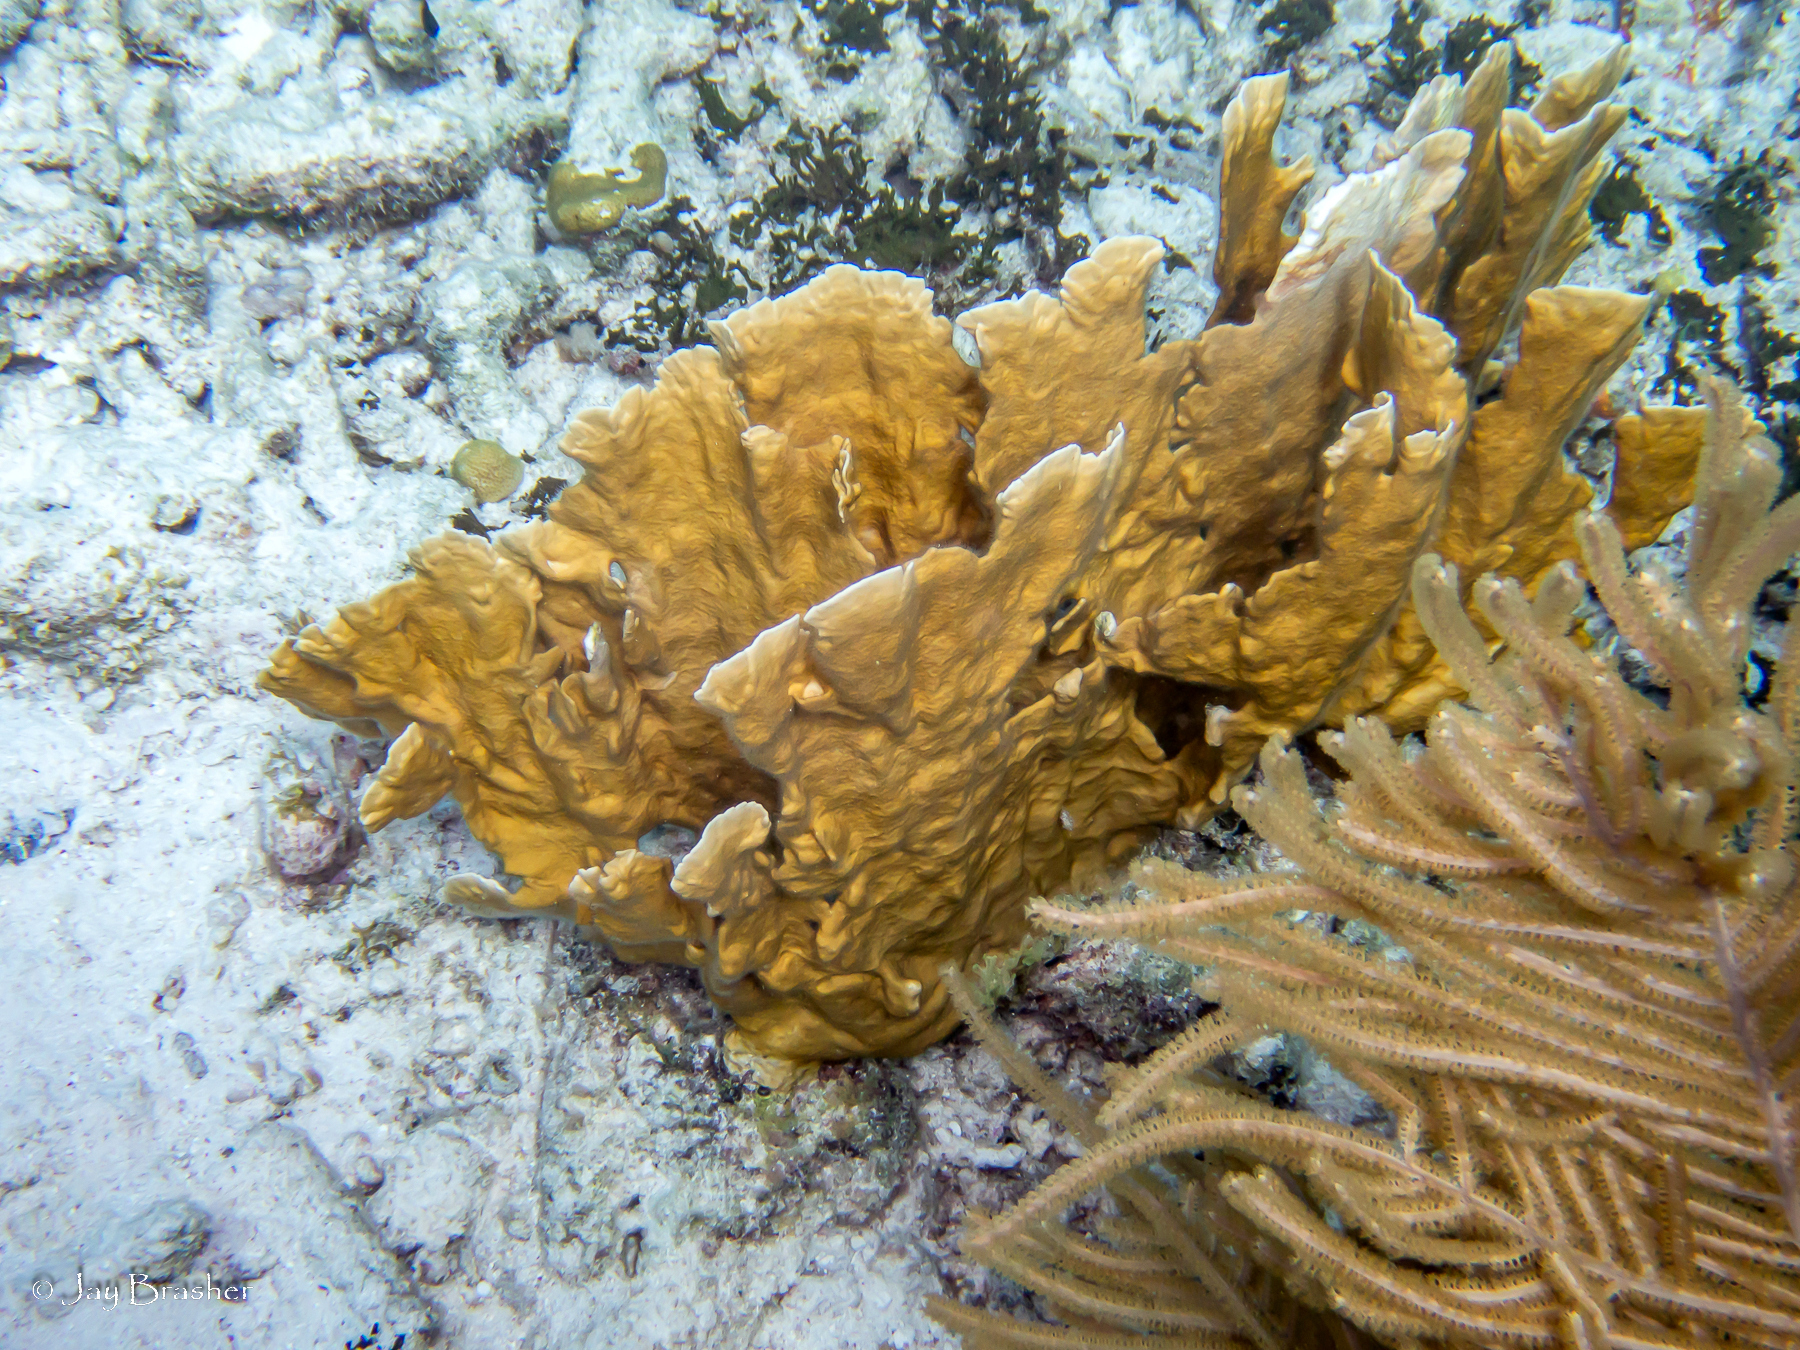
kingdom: Animalia
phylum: Cnidaria
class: Hydrozoa
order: Anthoathecata
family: Milleporidae
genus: Millepora
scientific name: Millepora complanata
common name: Bladed fire coral
